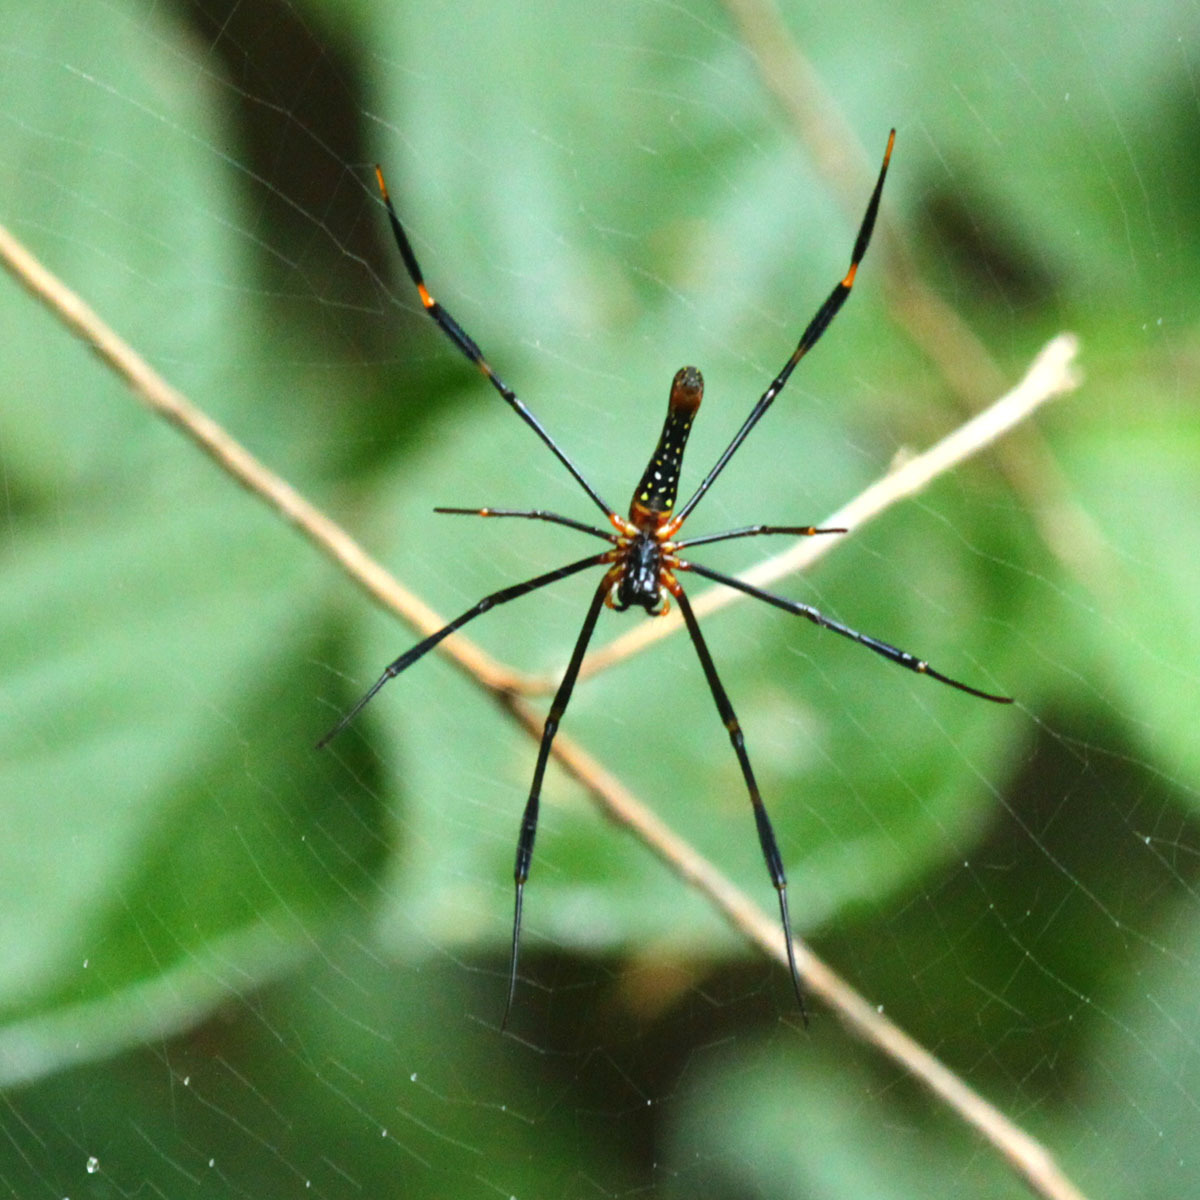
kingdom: Animalia
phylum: Arthropoda
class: Arachnida
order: Araneae
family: Araneidae
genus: Nephila
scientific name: Nephila pilipes
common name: Giant golden orb weaver
